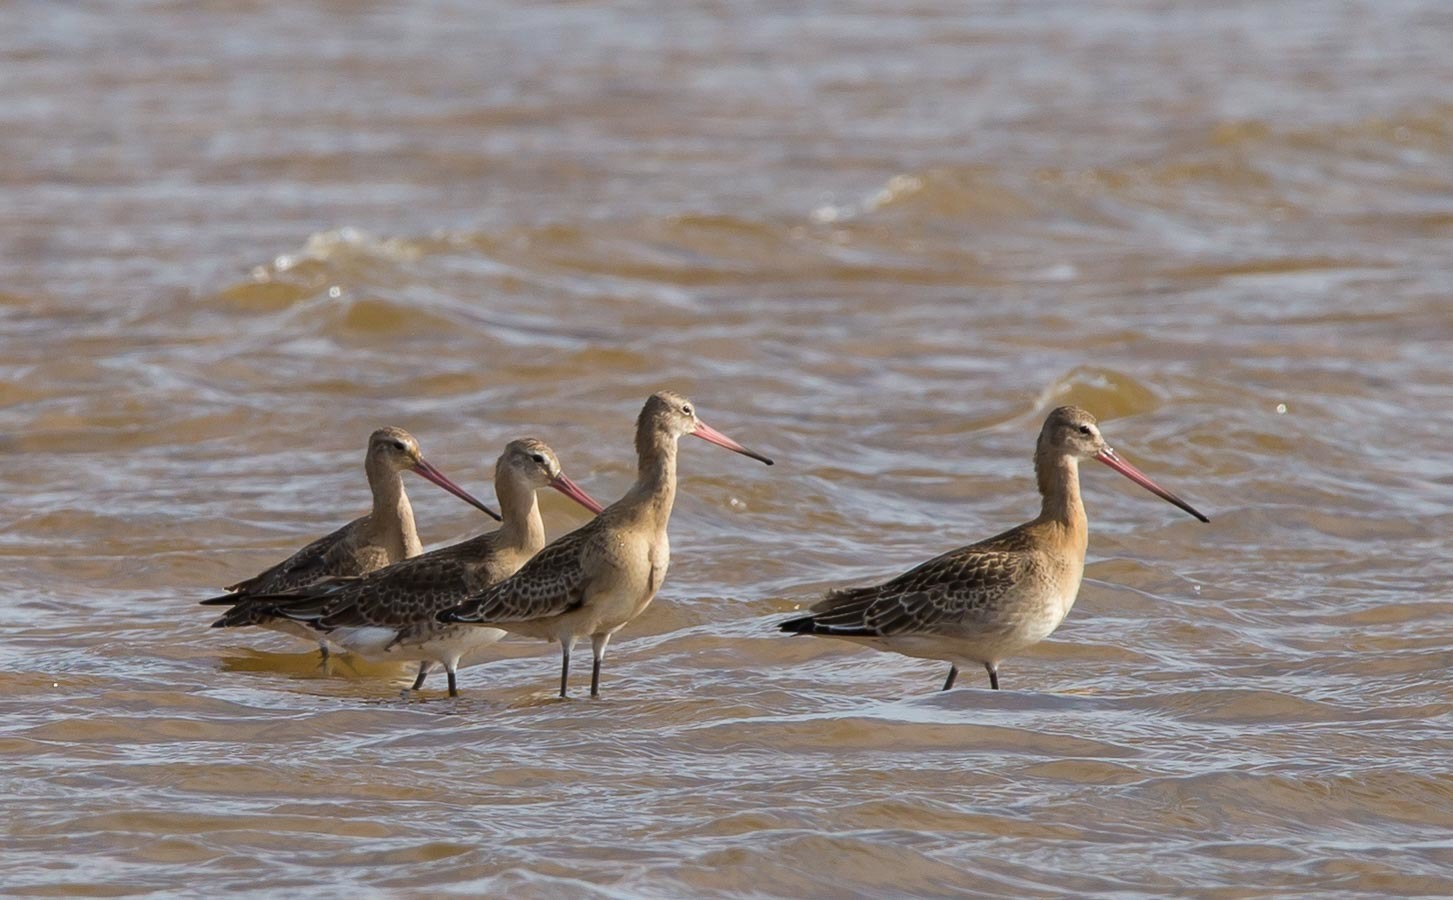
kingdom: Animalia
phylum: Chordata
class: Aves
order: Charadriiformes
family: Scolopacidae
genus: Limosa
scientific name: Limosa limosa
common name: Black-tailed godwit
